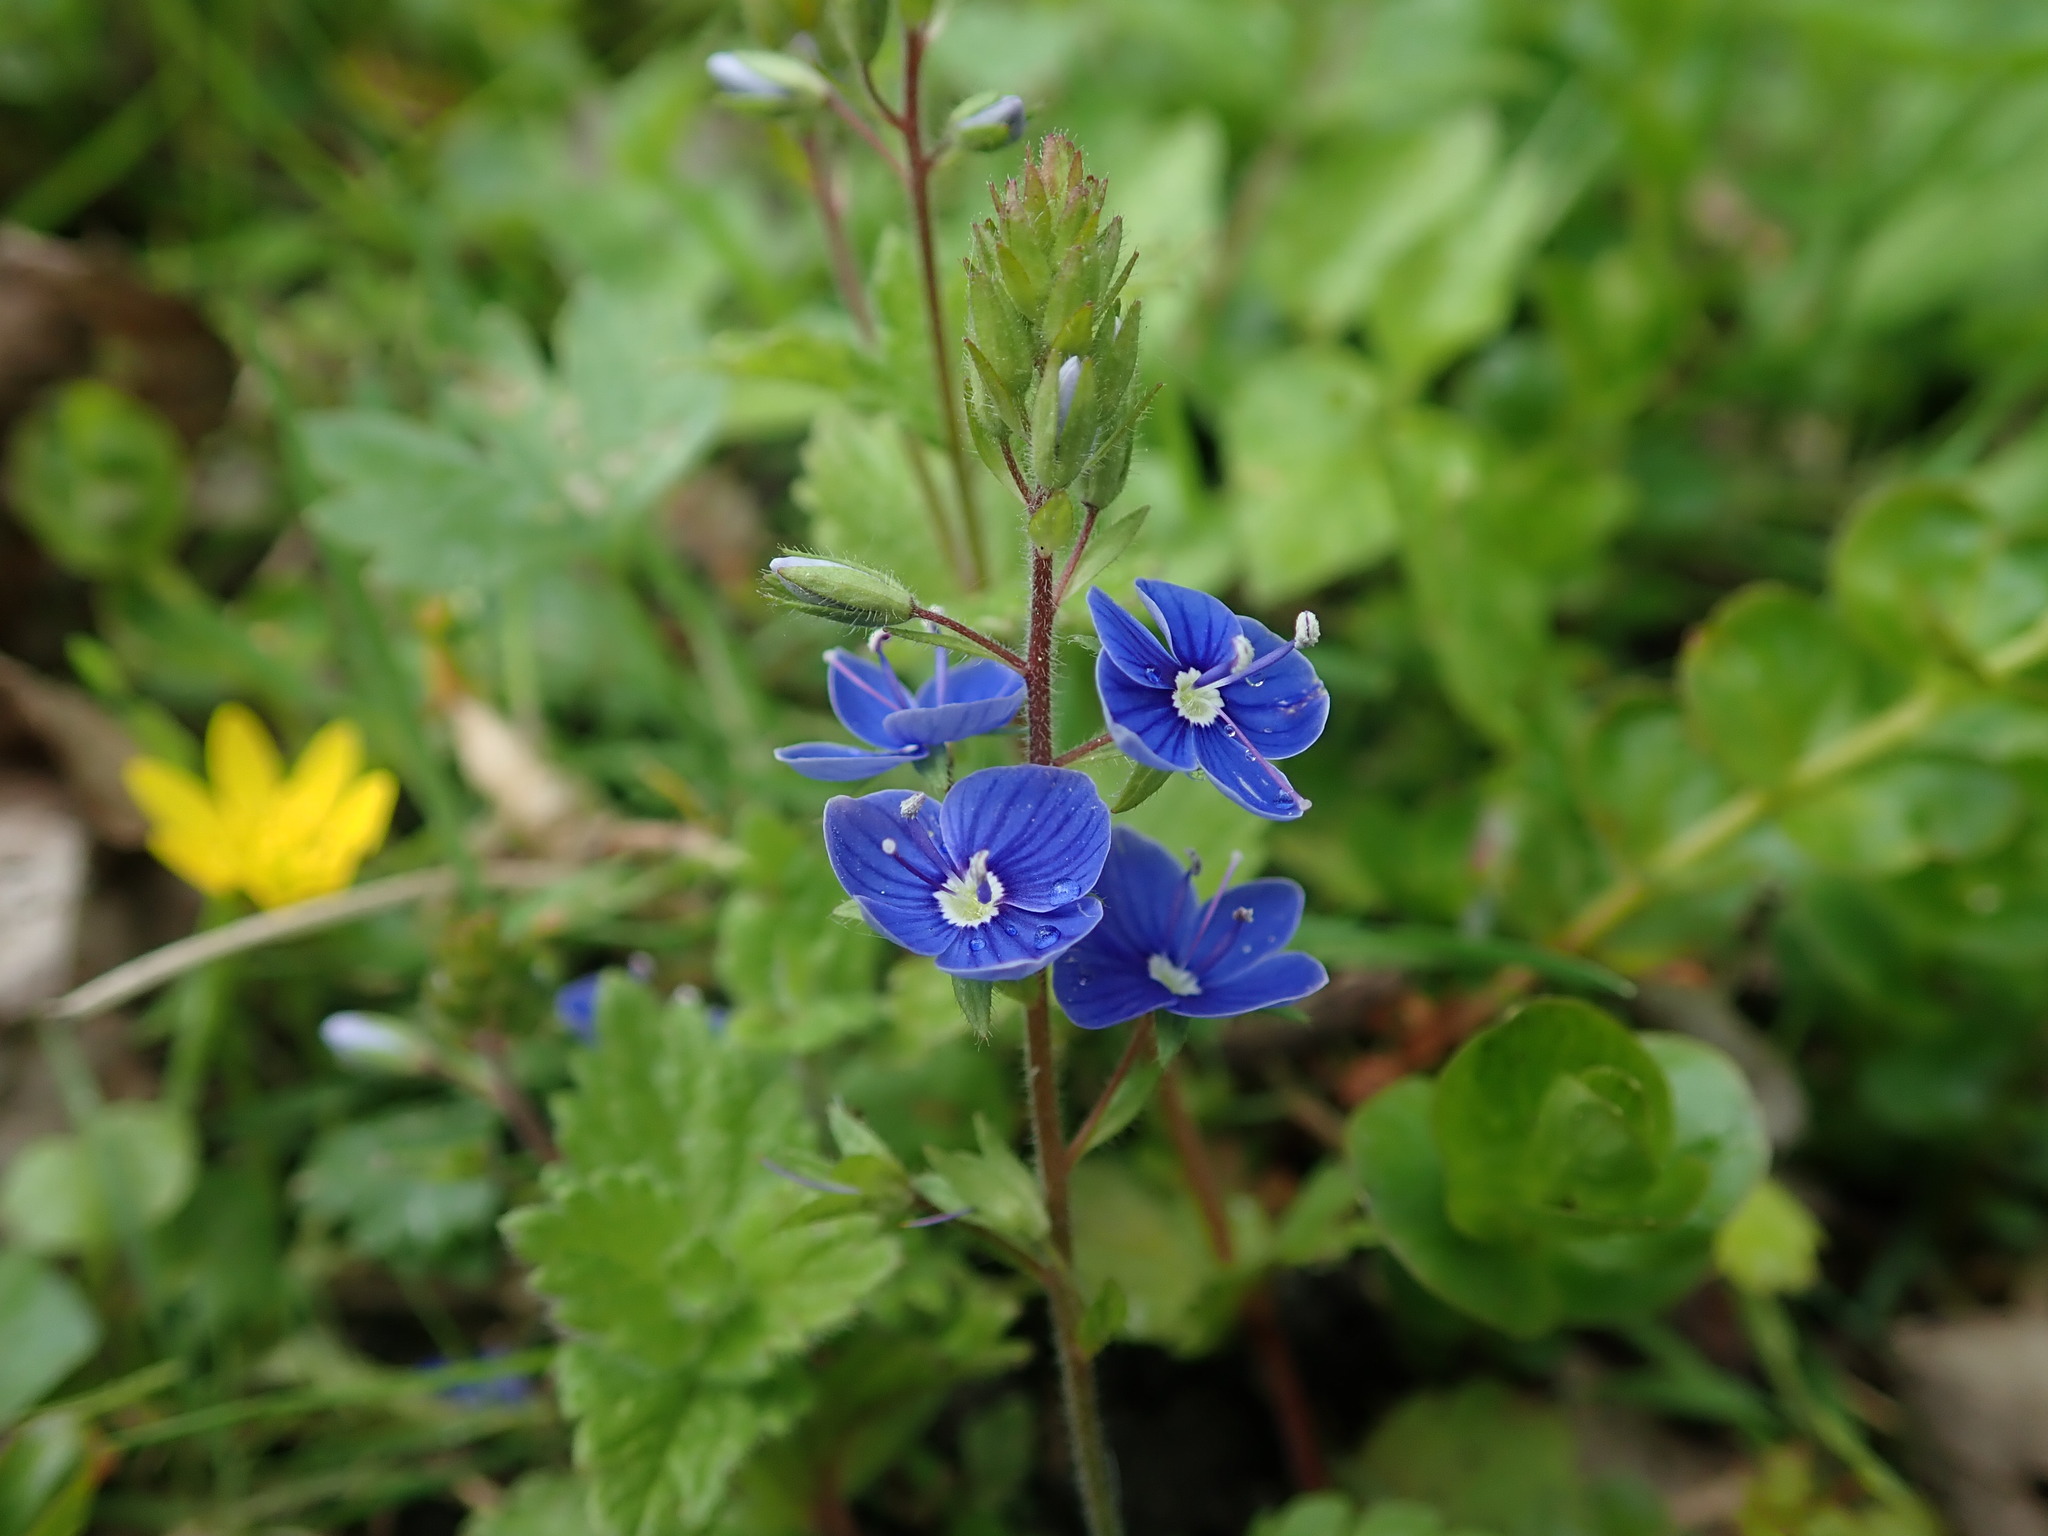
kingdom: Plantae
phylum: Tracheophyta
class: Magnoliopsida
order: Lamiales
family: Plantaginaceae
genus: Veronica
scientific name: Veronica chamaedrys
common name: Germander speedwell
